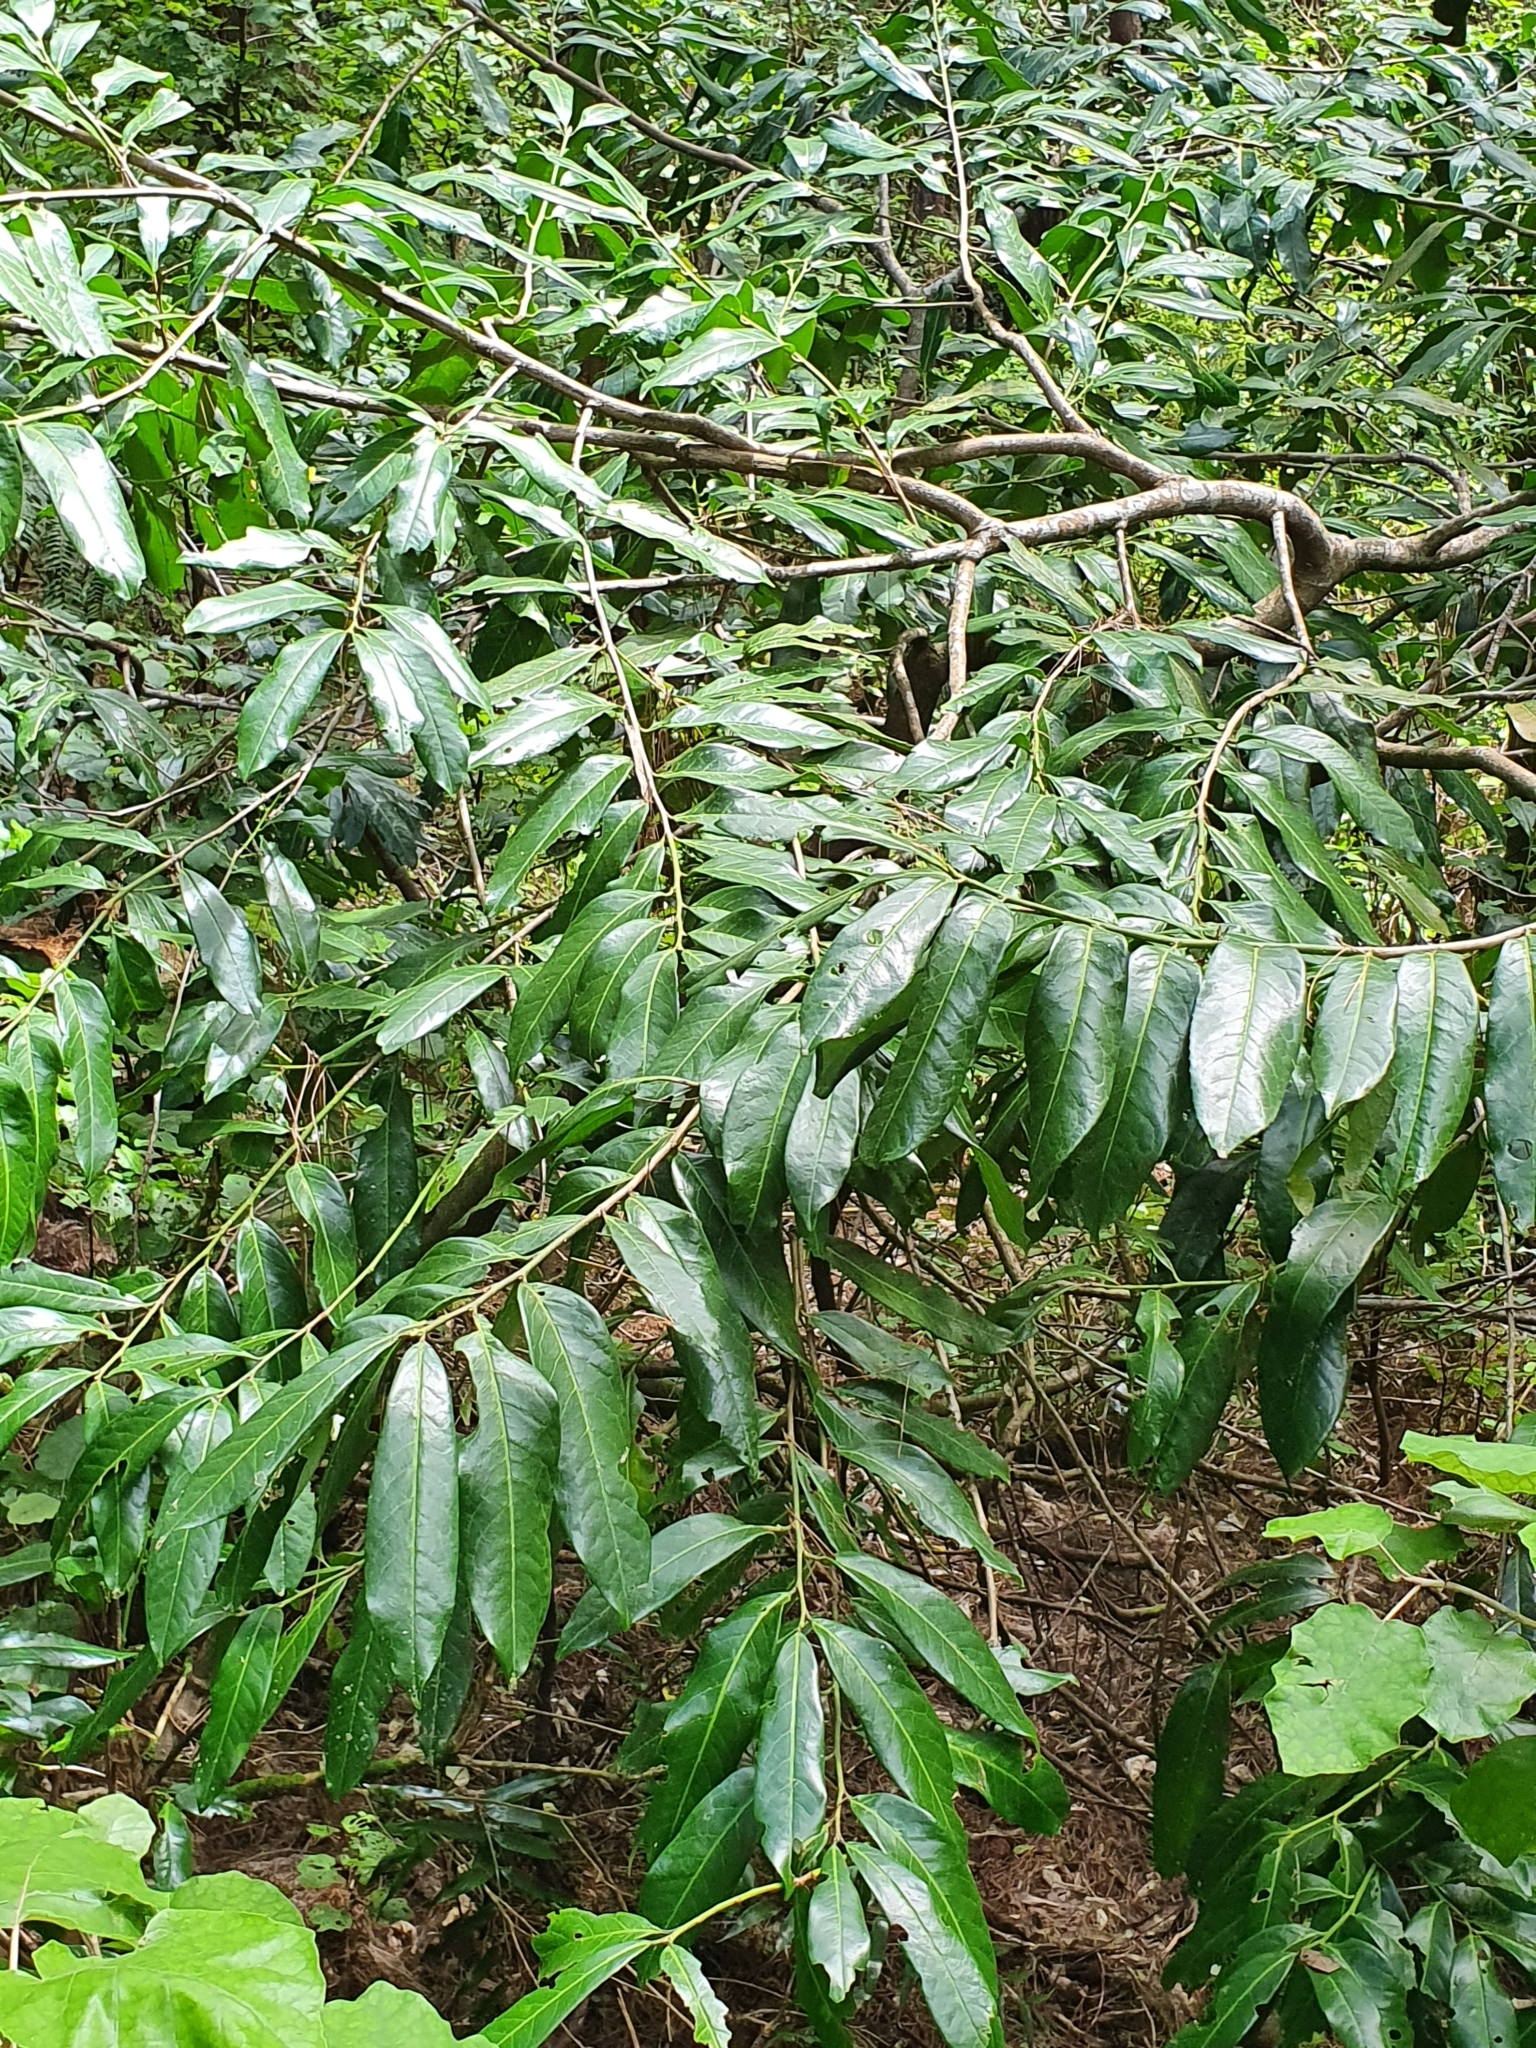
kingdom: Plantae
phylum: Tracheophyta
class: Magnoliopsida
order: Rosales
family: Rosaceae
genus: Prunus
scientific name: Prunus laurocerasus
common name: Cherry laurel
